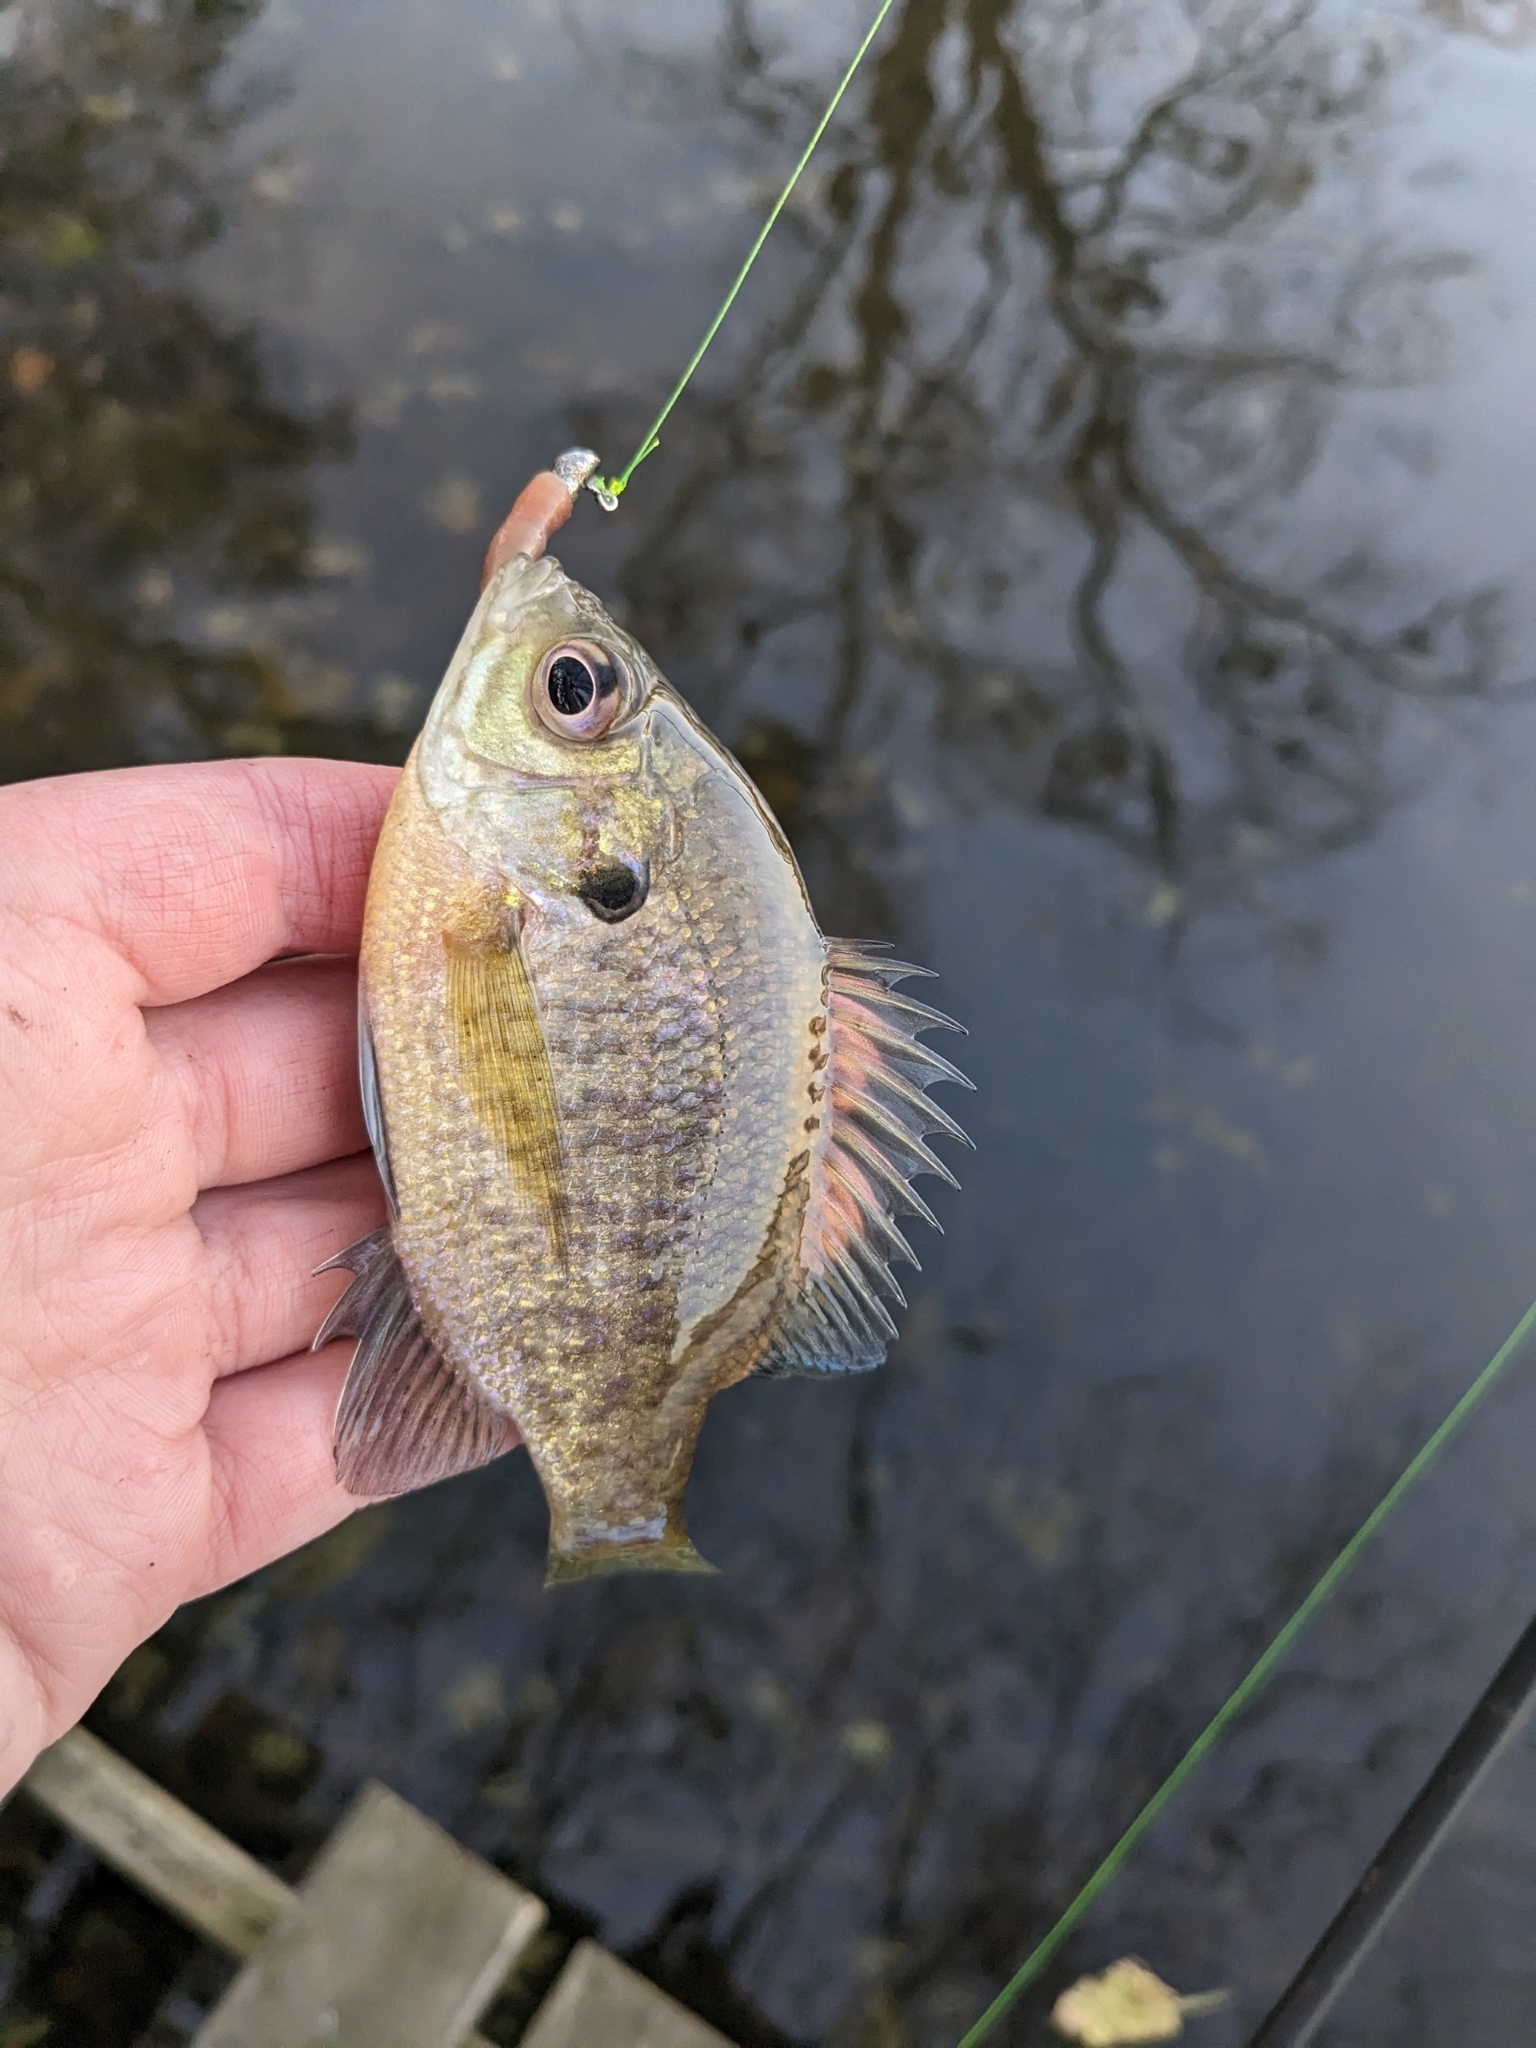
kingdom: Animalia
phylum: Chordata
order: Perciformes
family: Centrarchidae
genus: Lepomis
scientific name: Lepomis macrochirus
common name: Bluegill
